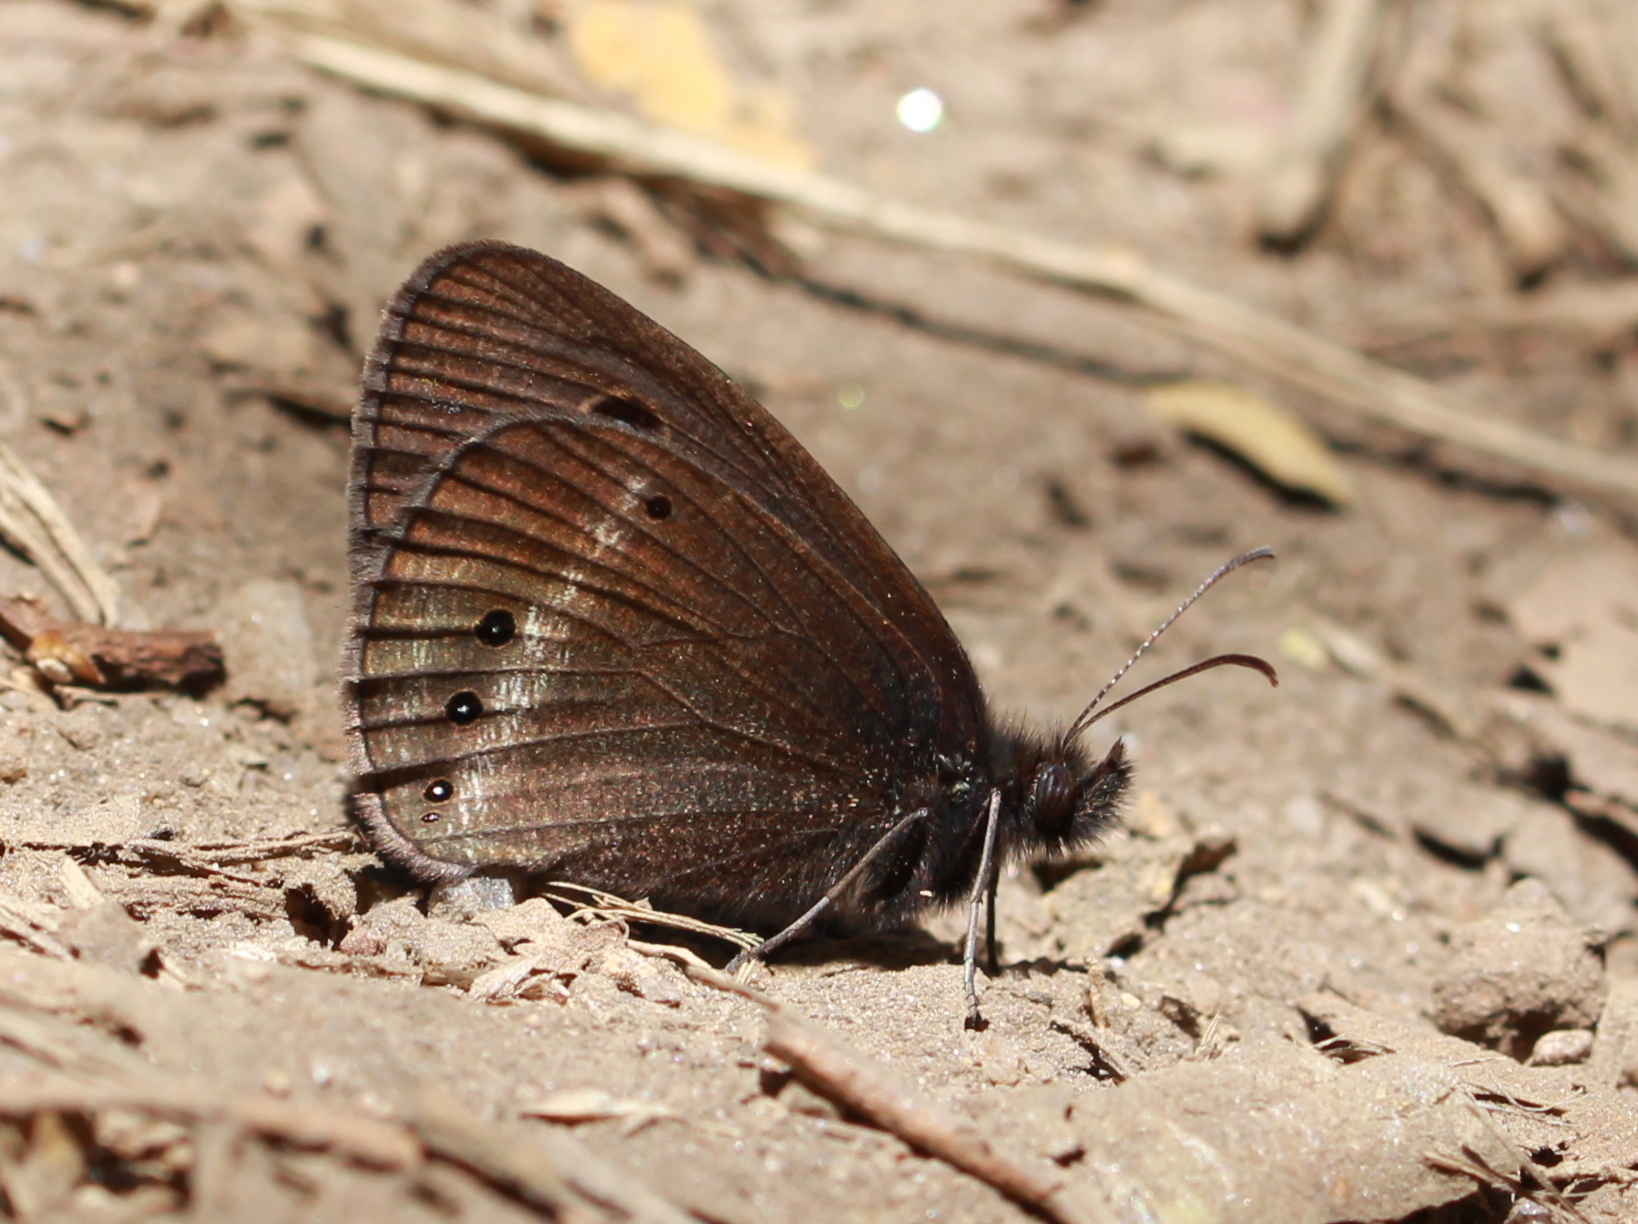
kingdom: Animalia
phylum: Arthropoda
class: Insecta
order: Lepidoptera
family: Nymphalidae
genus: Ypthima
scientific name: Ypthima ypthimoides
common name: Palni four-ring
